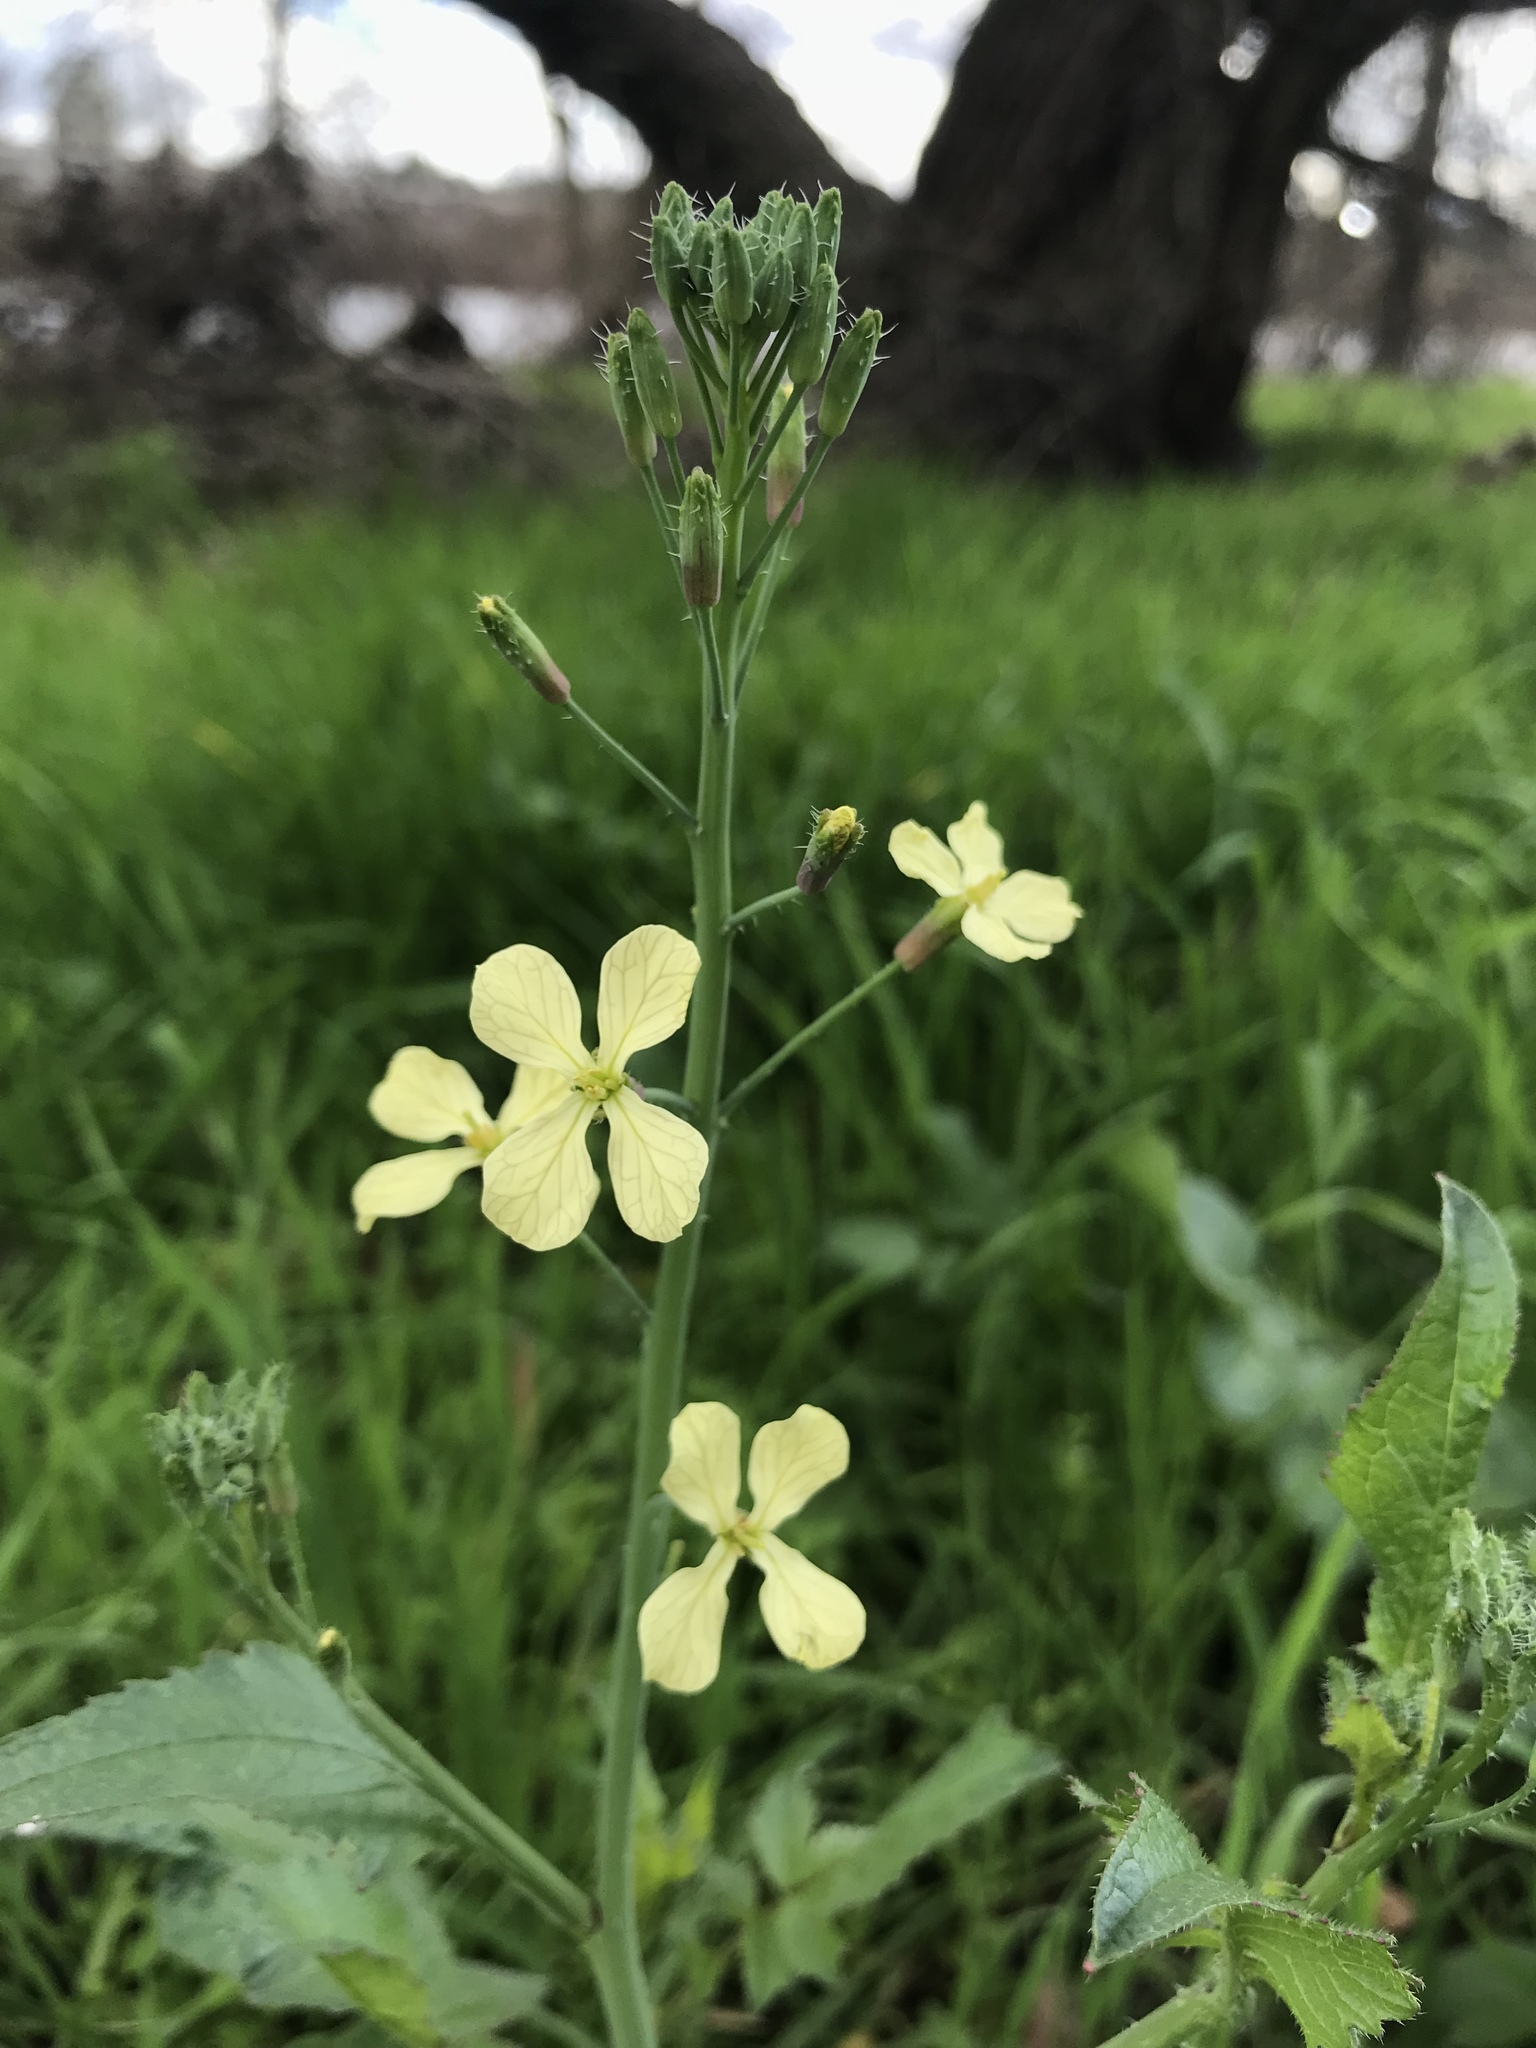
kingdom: Plantae
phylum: Tracheophyta
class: Magnoliopsida
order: Brassicales
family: Brassicaceae
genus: Raphanus
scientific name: Raphanus raphanistrum
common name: Wild radish
